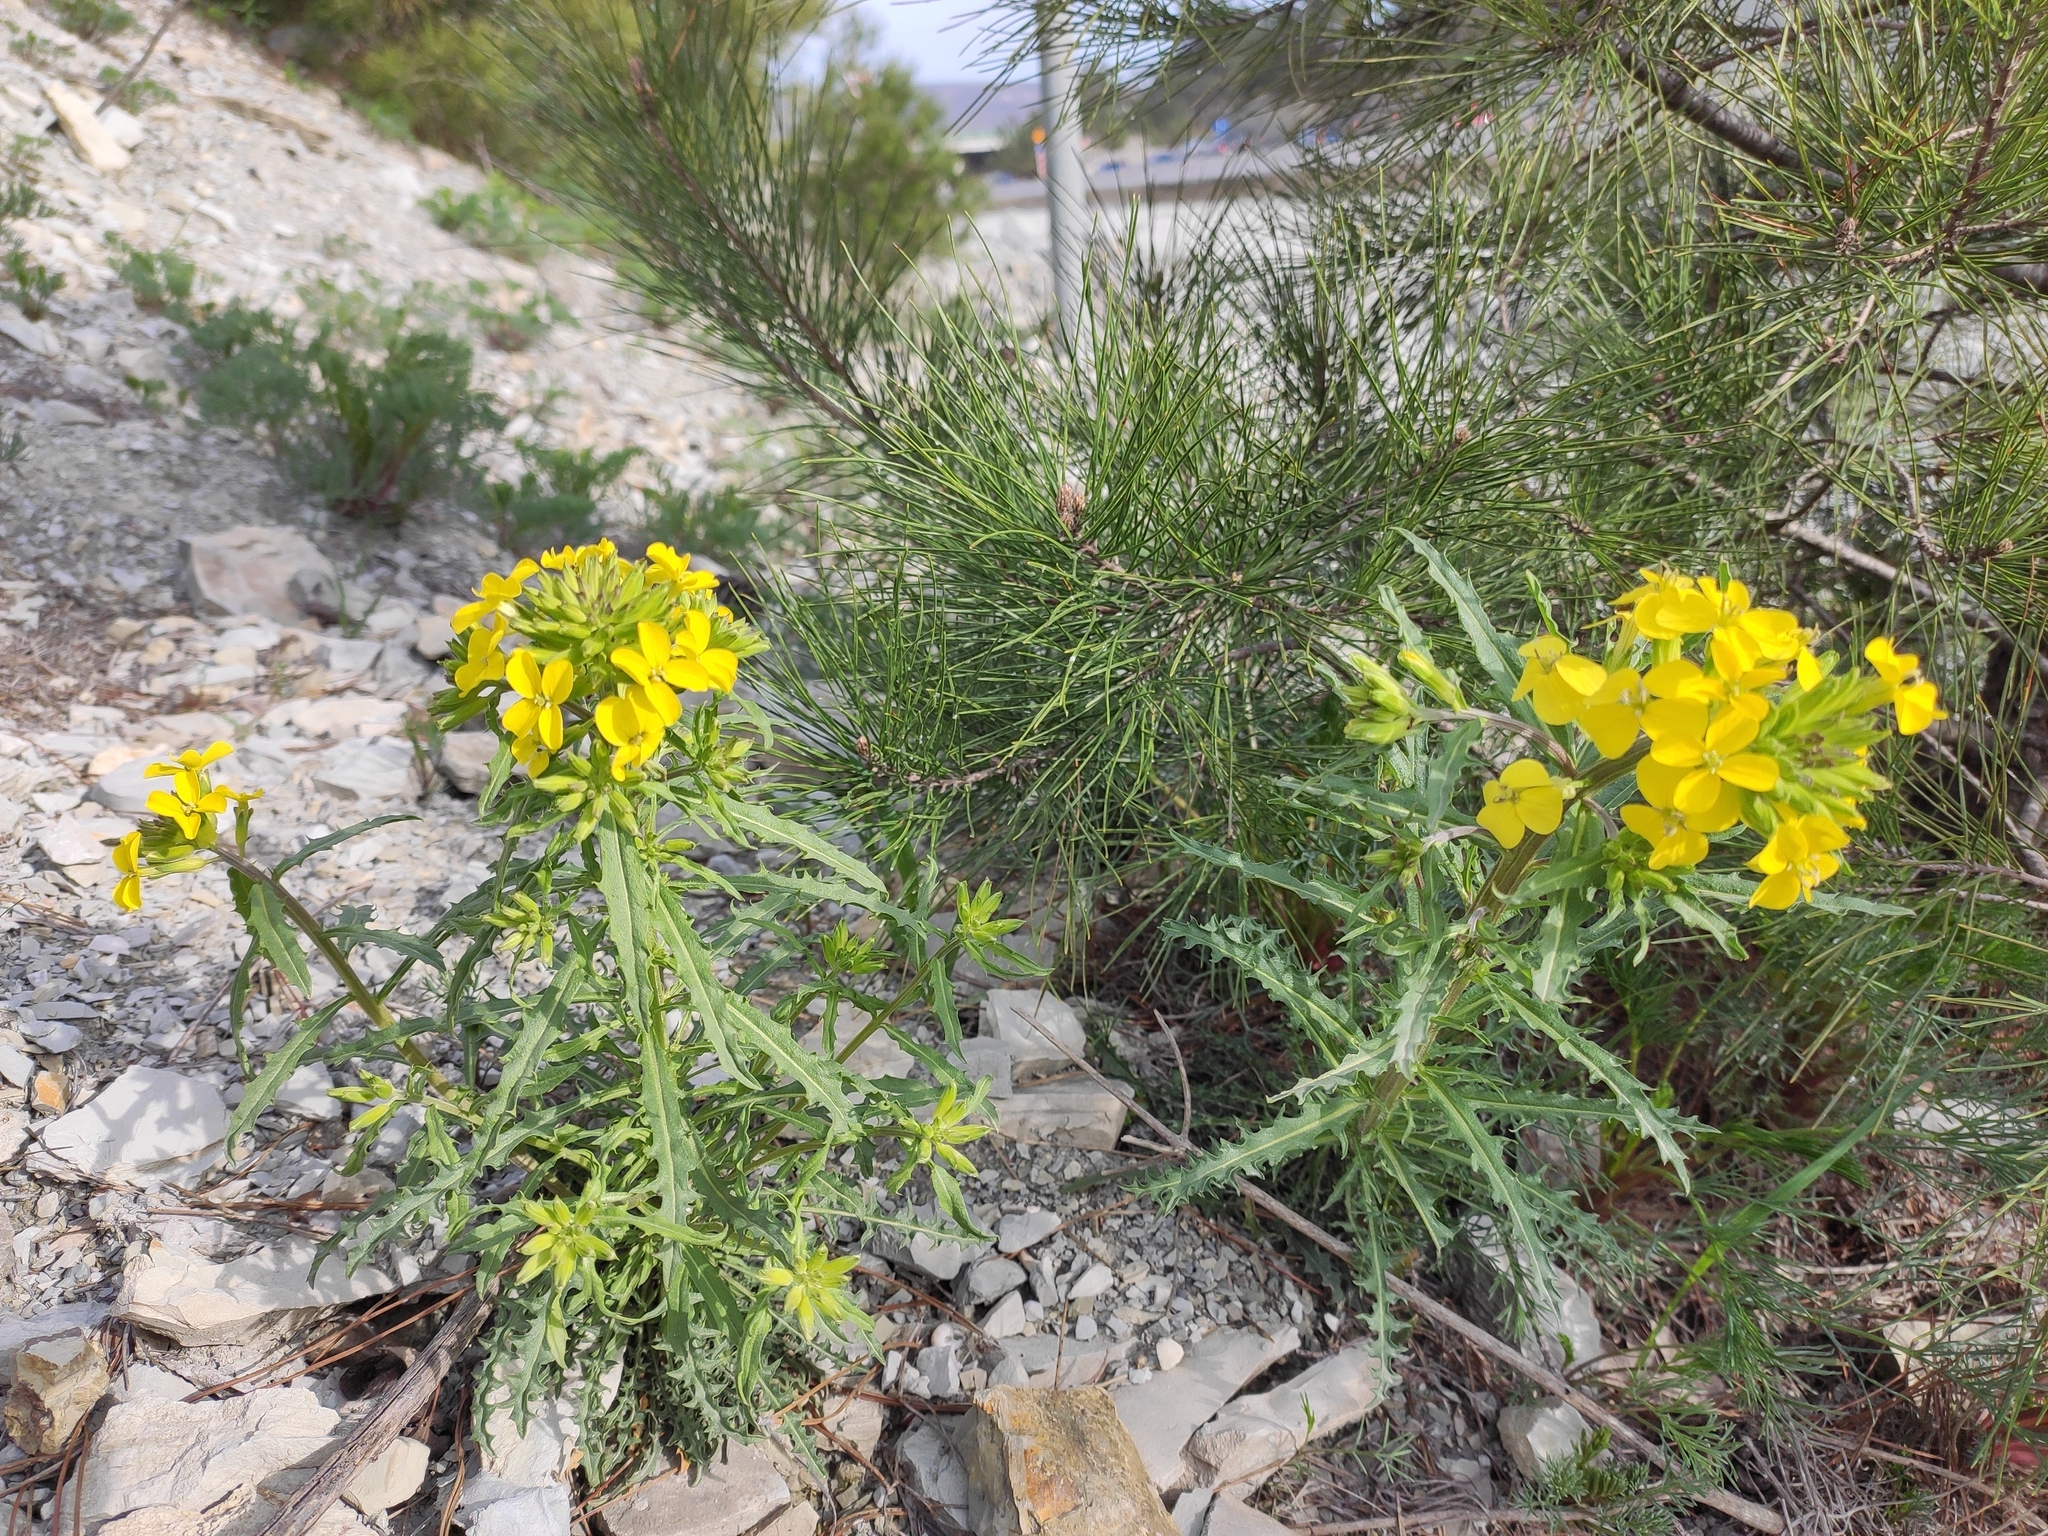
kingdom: Plantae
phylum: Tracheophyta
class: Magnoliopsida
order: Brassicales
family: Brassicaceae
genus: Erysimum
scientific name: Erysimum callicarpum
